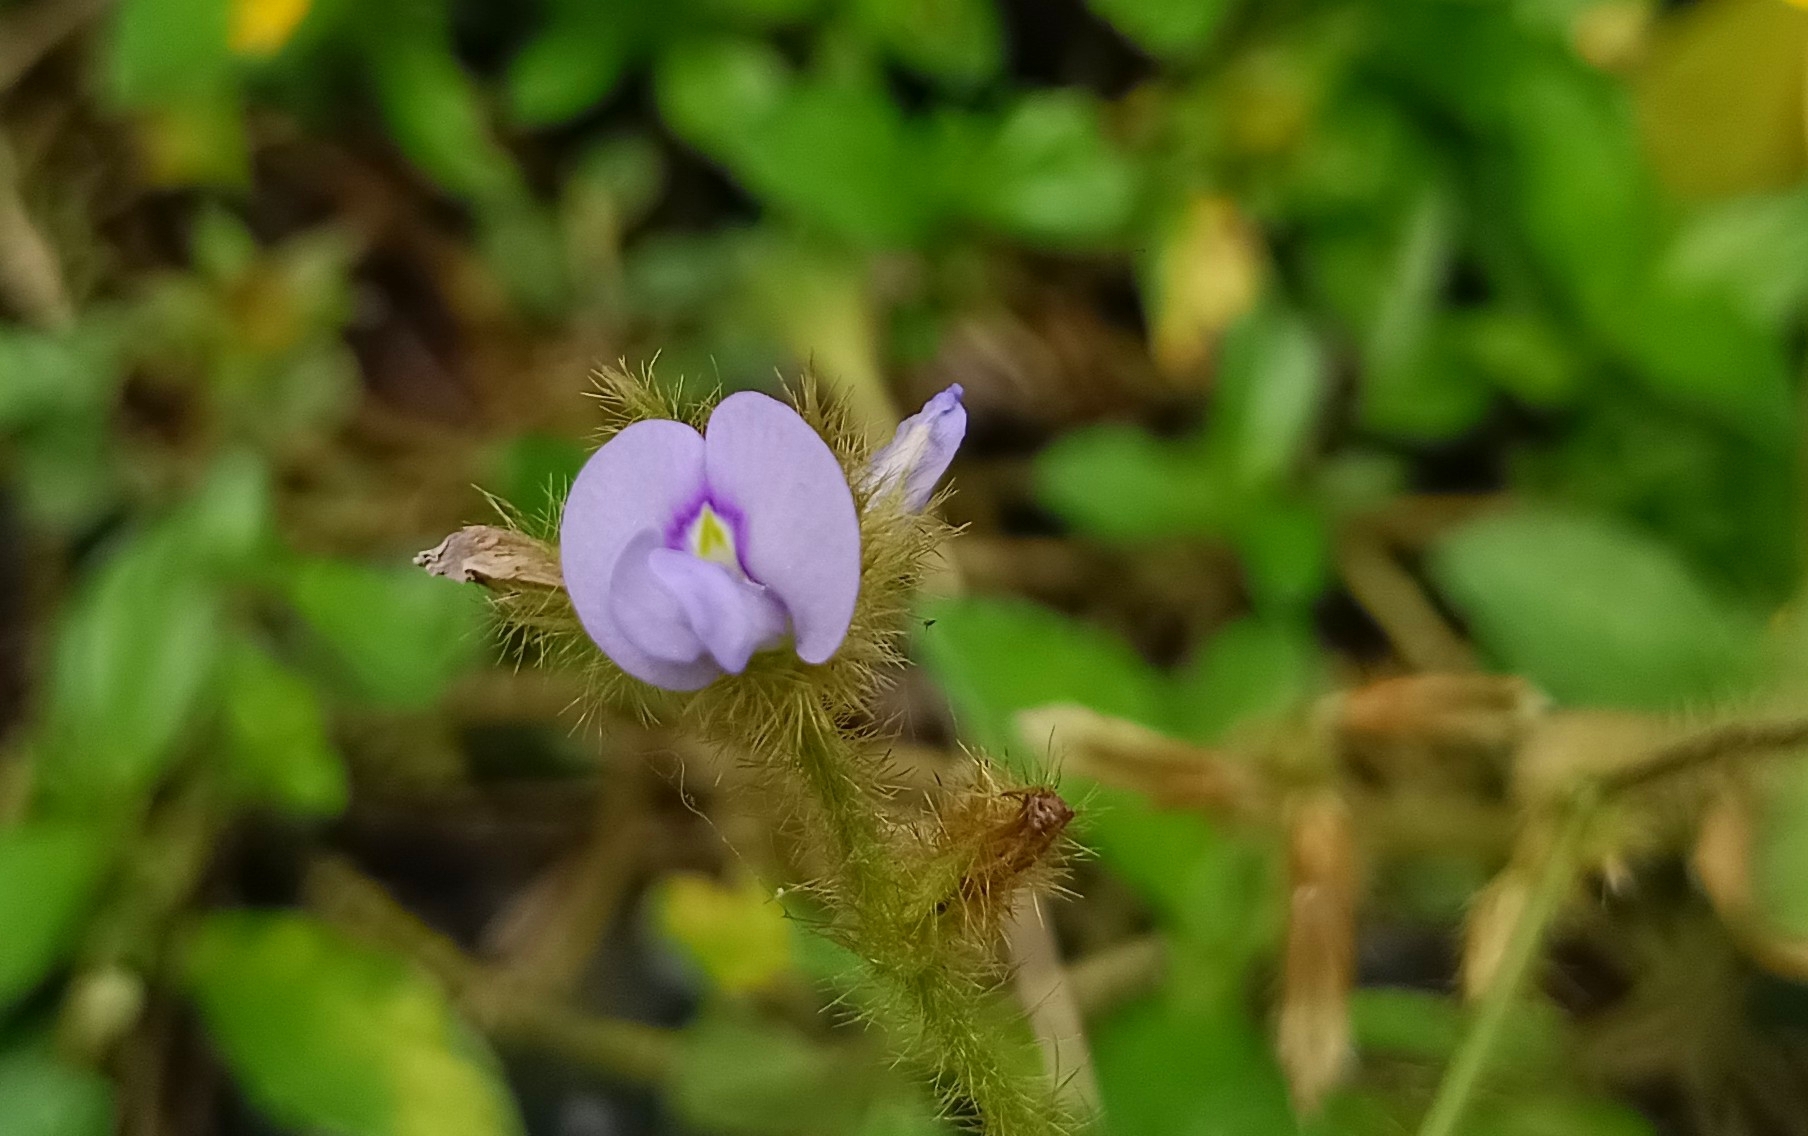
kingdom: Plantae
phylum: Tracheophyta
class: Magnoliopsida
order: Fabales
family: Fabaceae
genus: Calopogonium
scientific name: Calopogonium mucunoides
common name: Calopo
